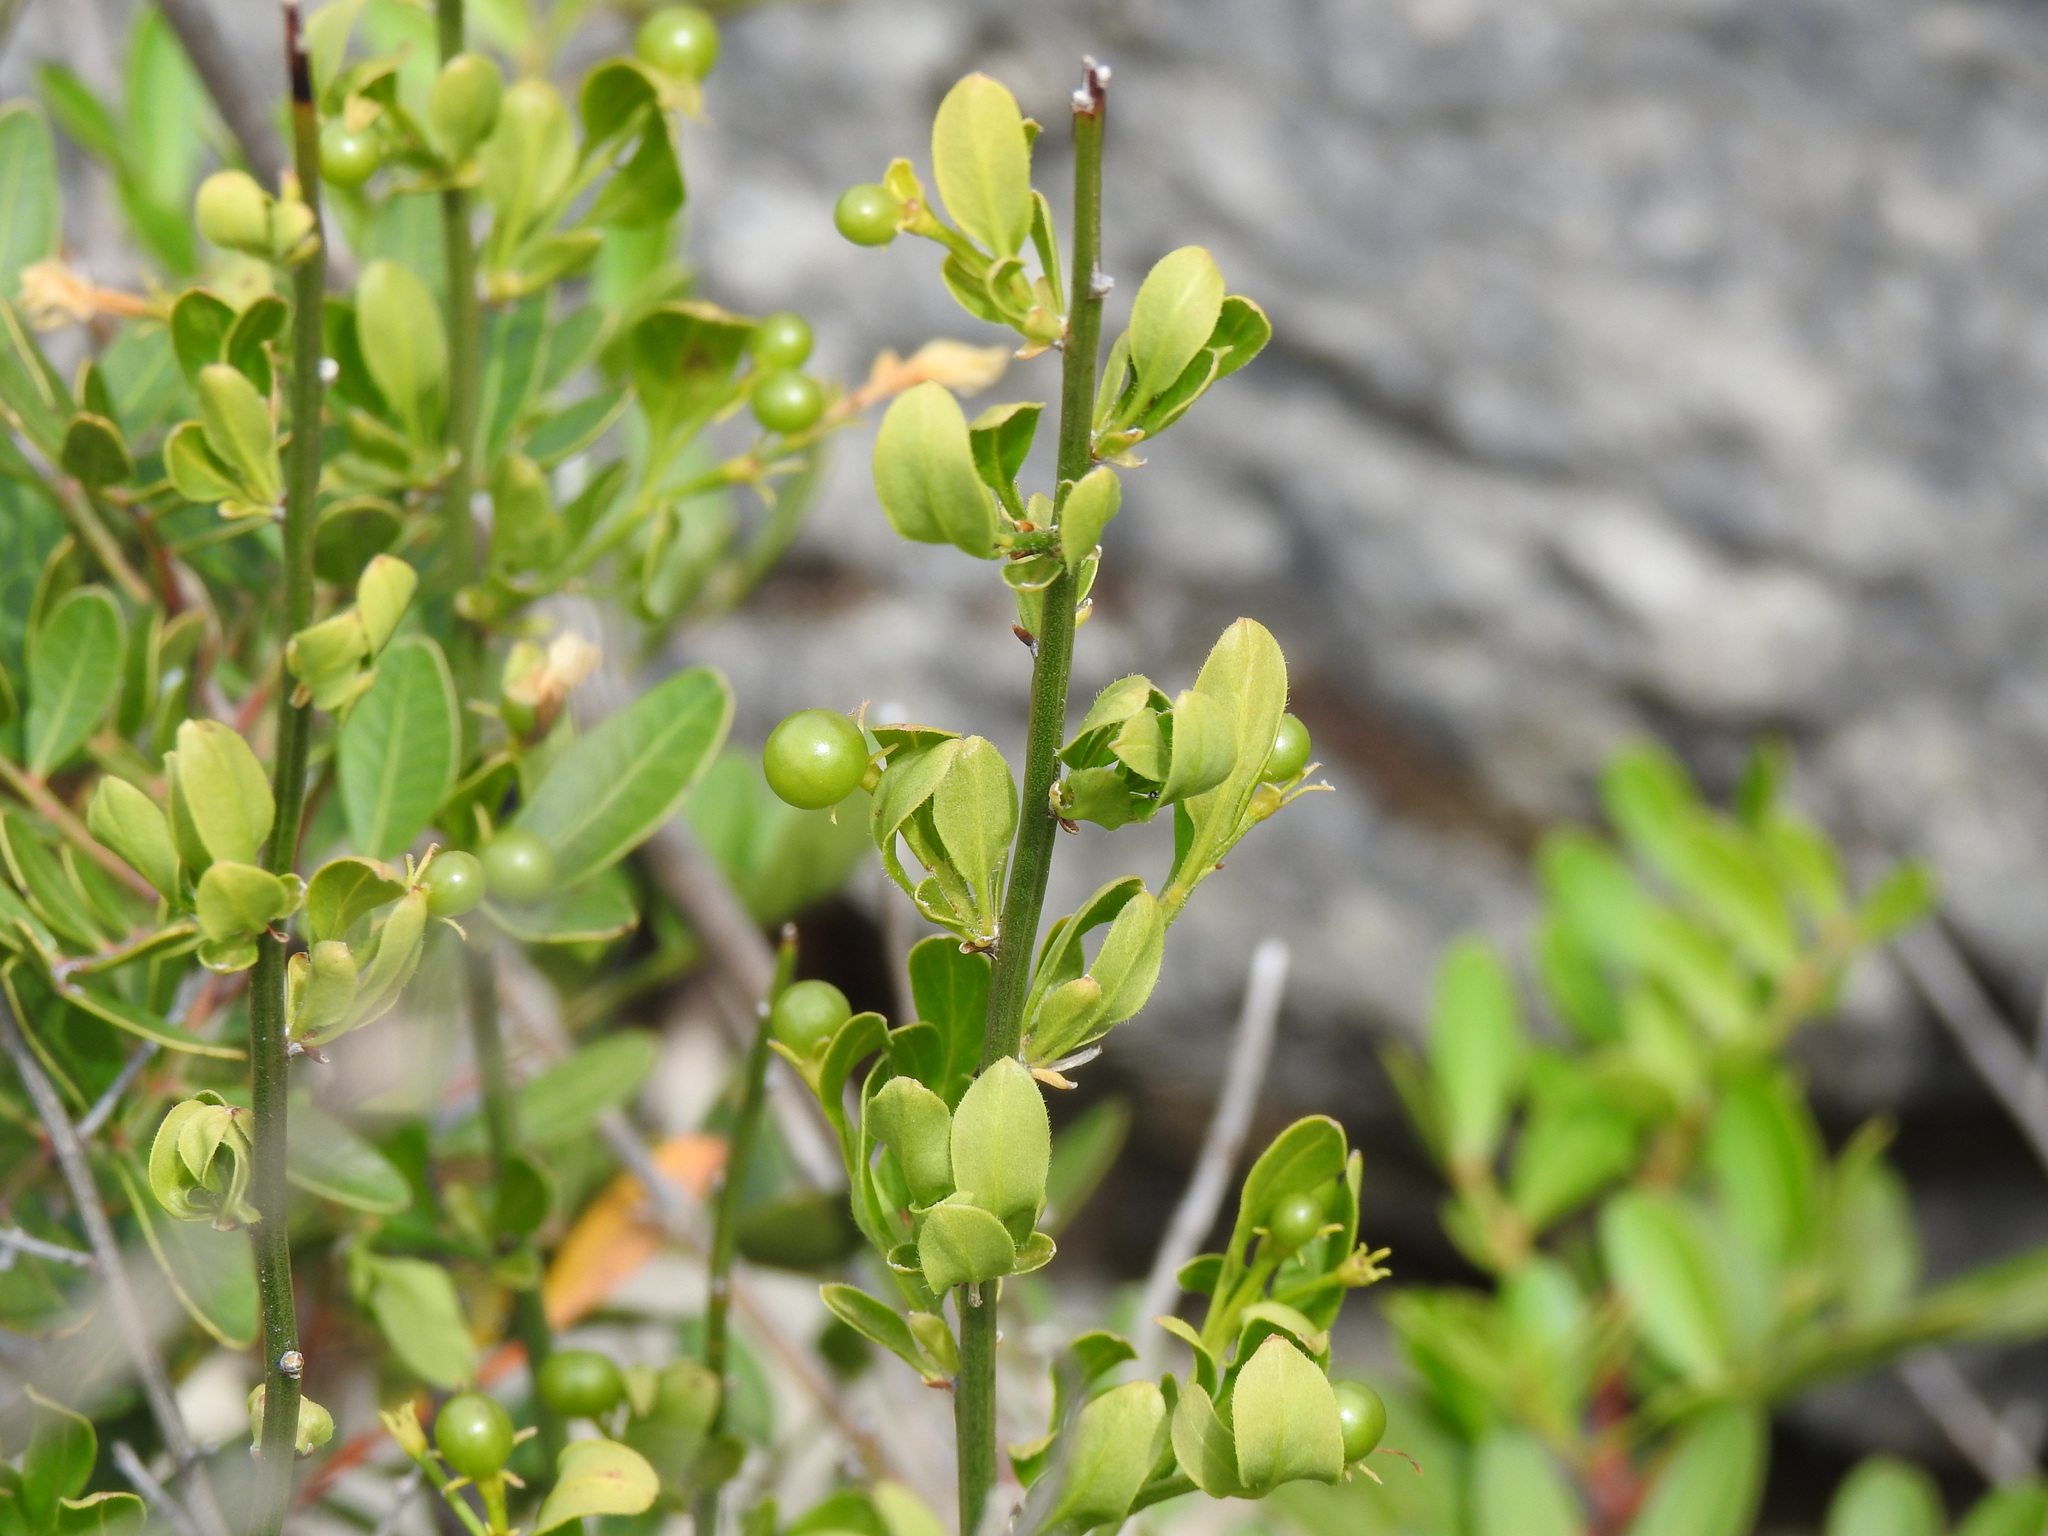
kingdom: Plantae
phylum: Tracheophyta
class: Magnoliopsida
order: Lamiales
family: Oleaceae
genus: Chrysojasminum
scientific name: Chrysojasminum fruticans
